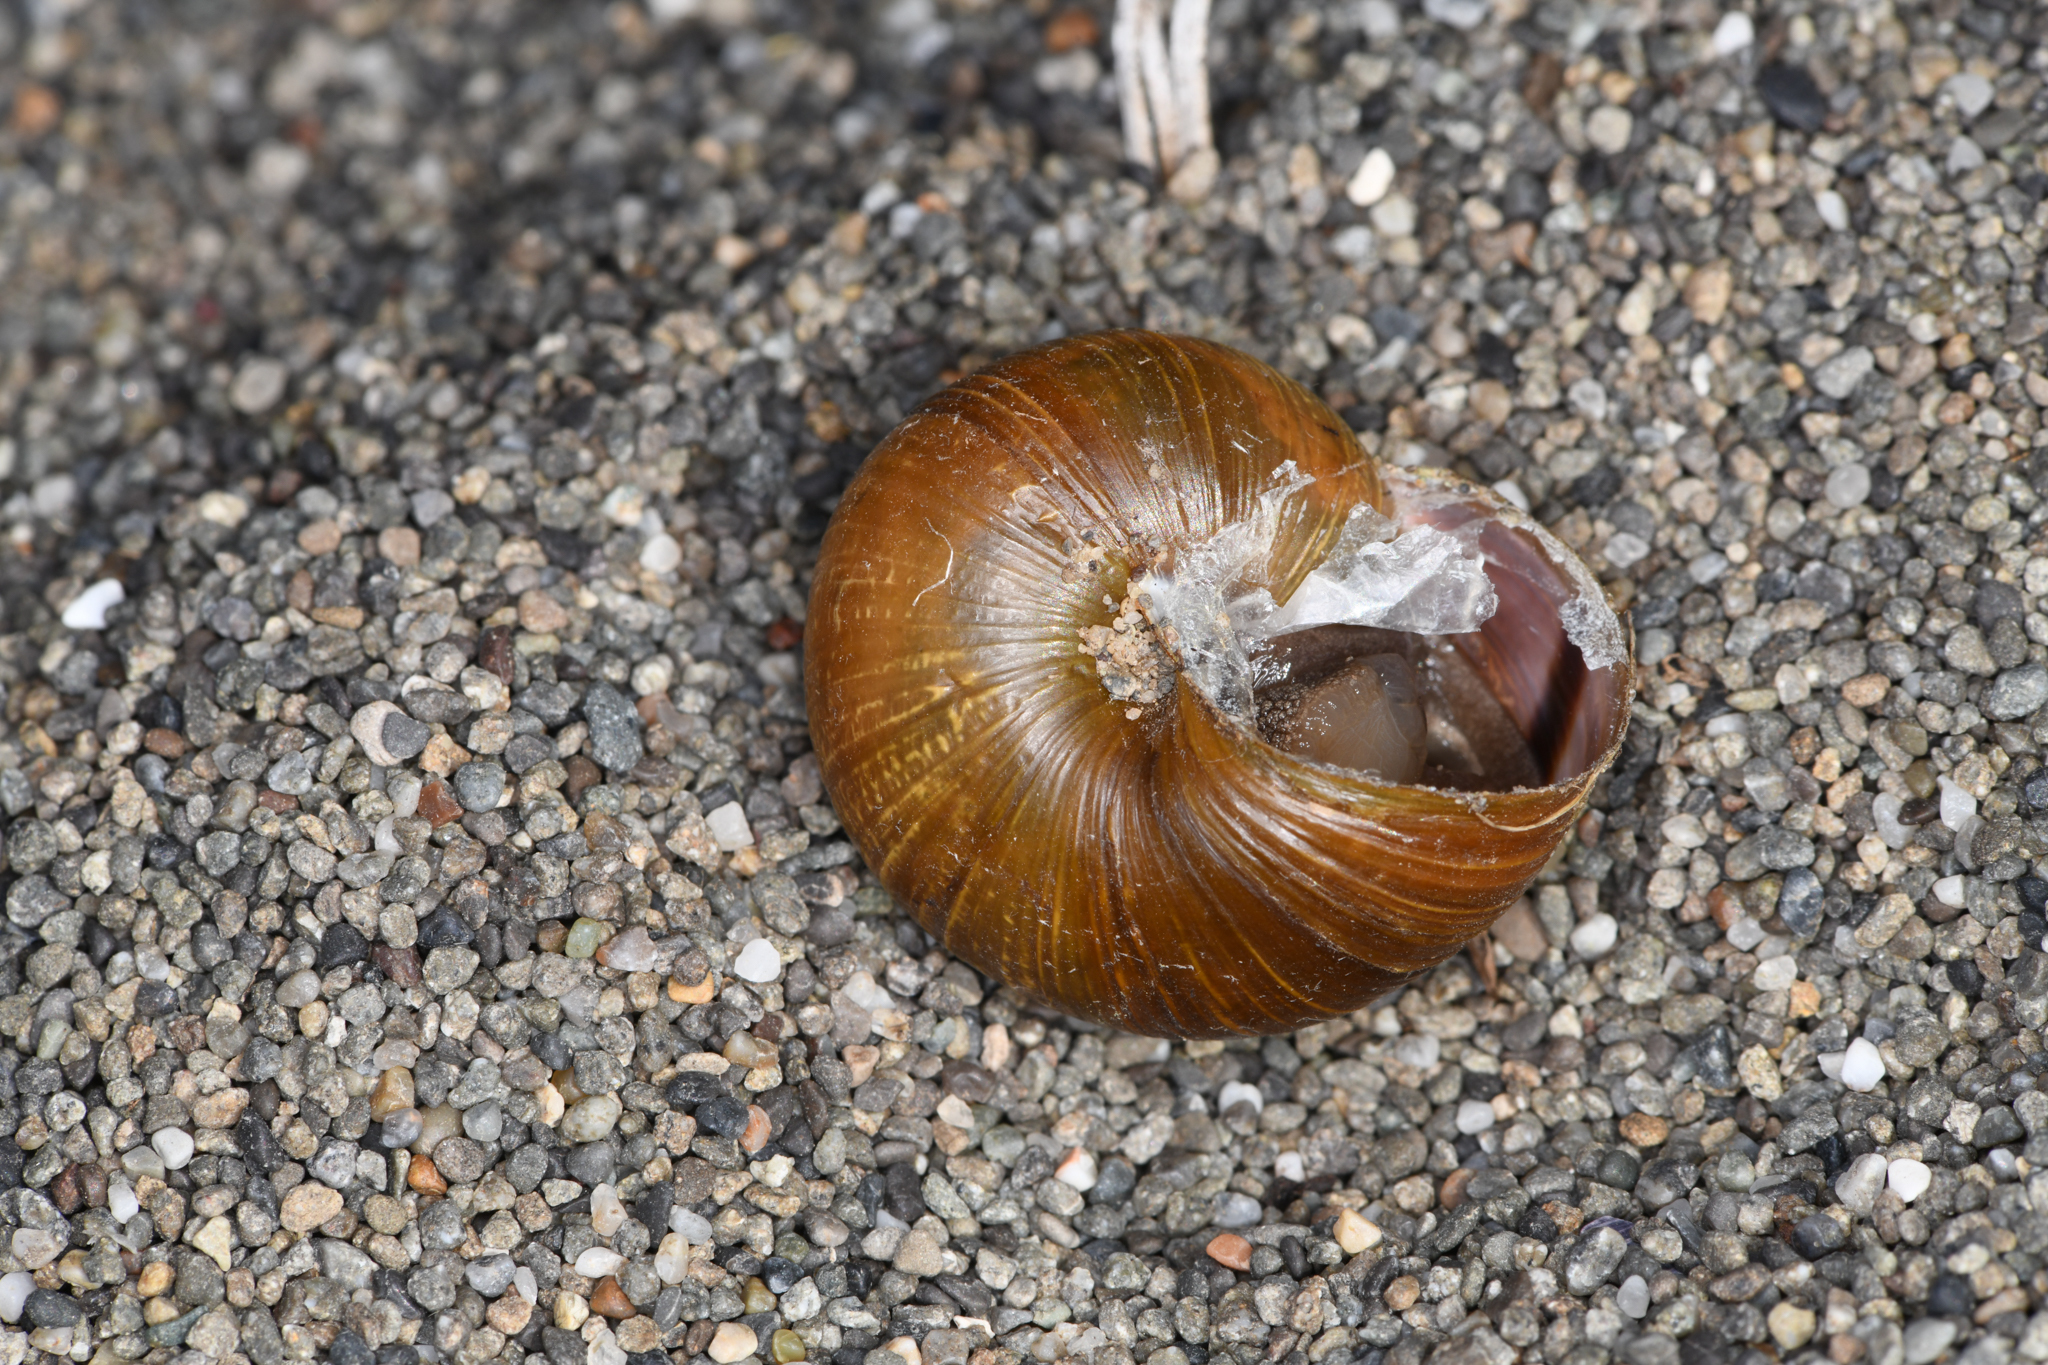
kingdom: Animalia
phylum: Mollusca
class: Gastropoda
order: Stylommatophora
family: Xanthonychidae
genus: Helminthoglypta
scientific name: Helminthoglypta expansilabris
